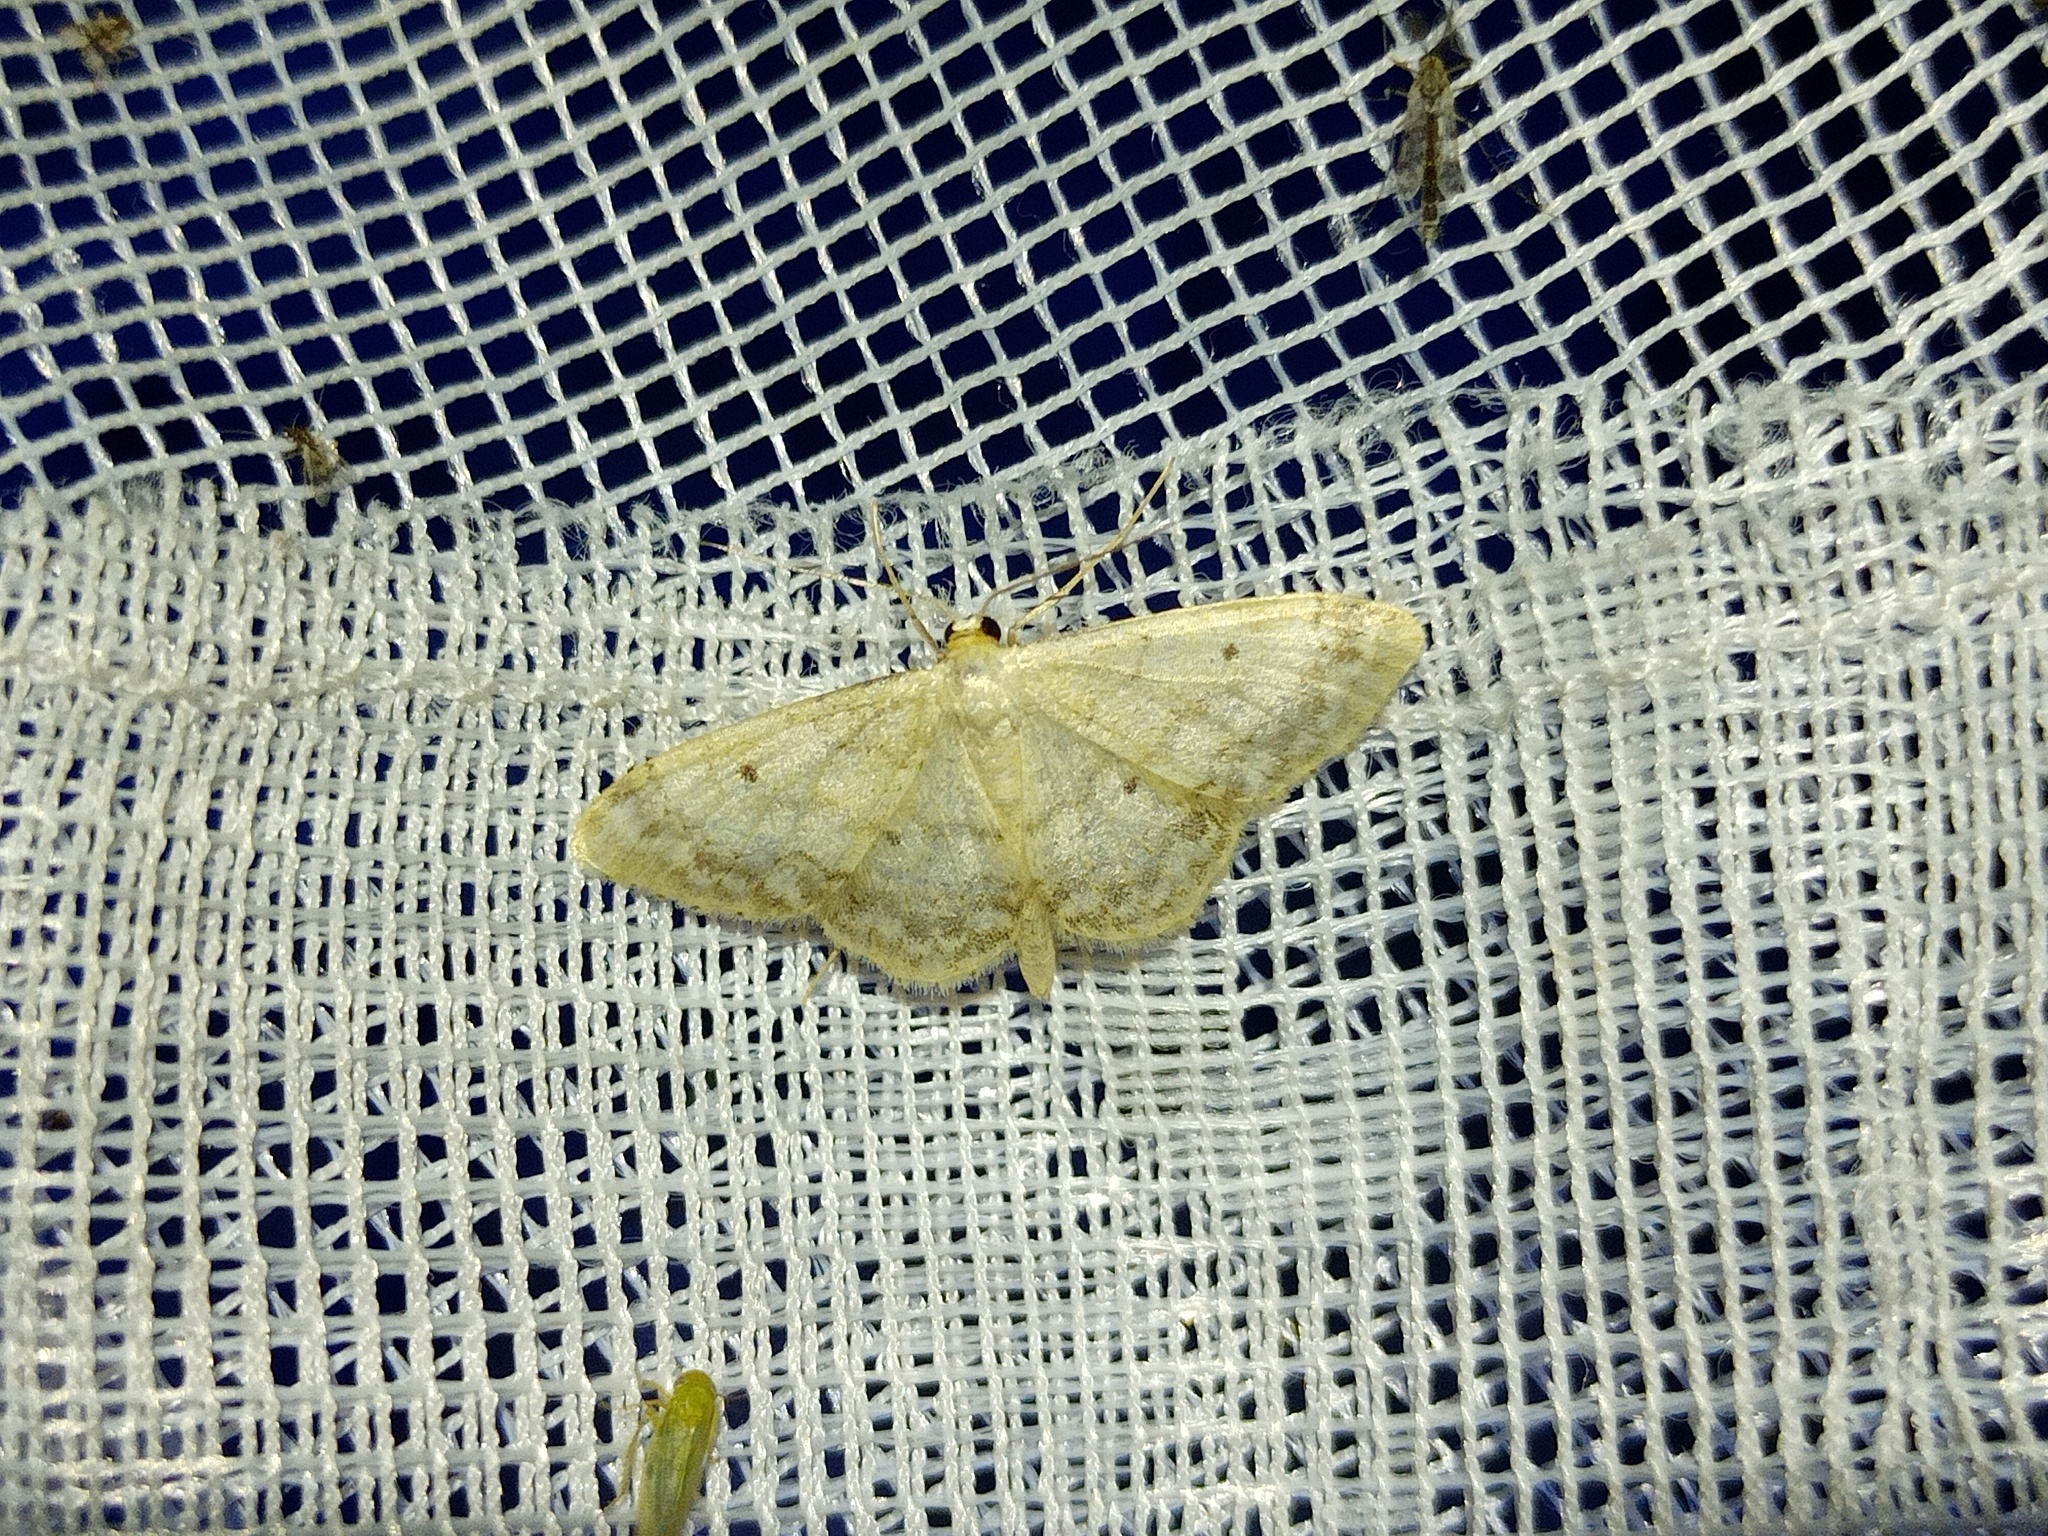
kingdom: Animalia
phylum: Arthropoda
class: Insecta
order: Lepidoptera
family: Geometridae
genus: Idaea
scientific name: Idaea biselata
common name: Small fan-footed wave
